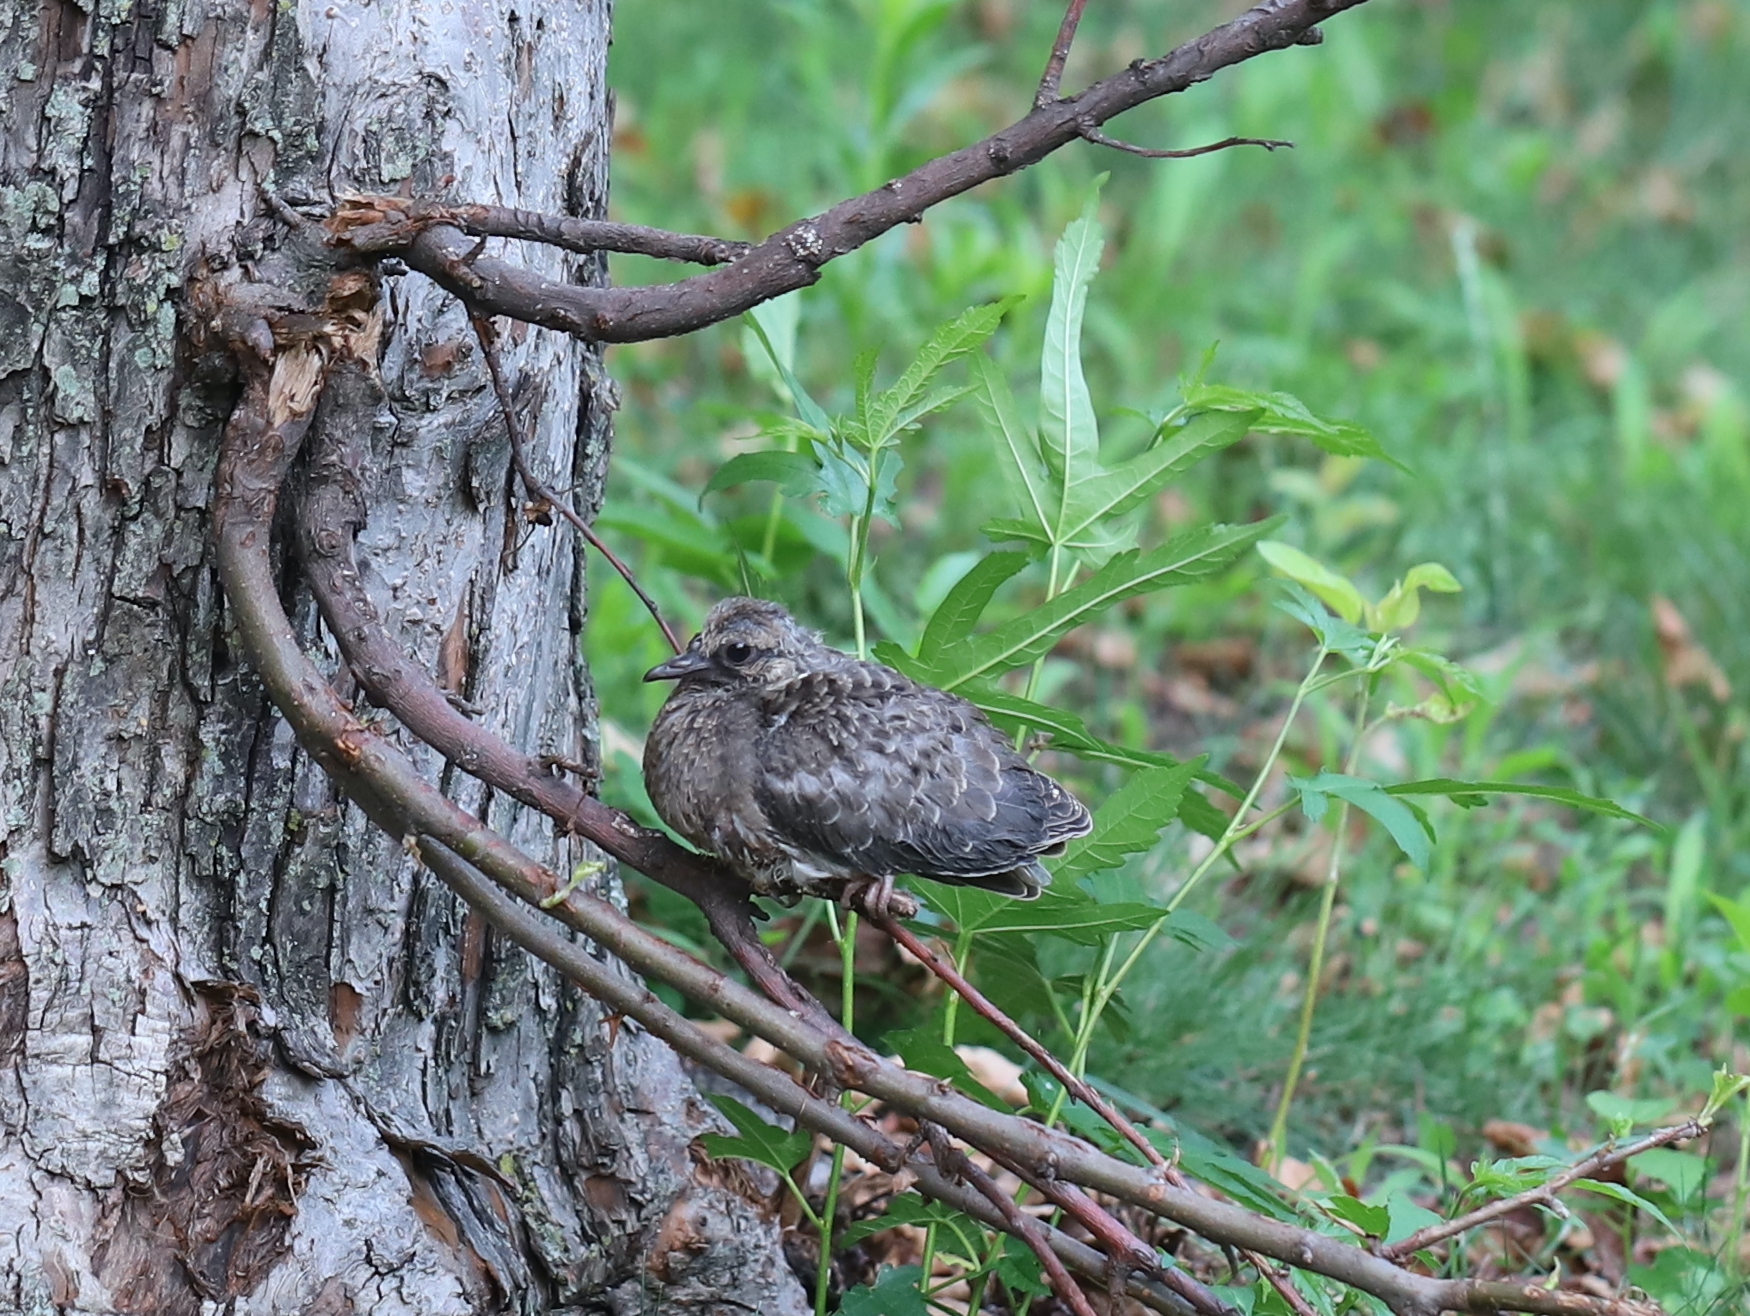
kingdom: Animalia
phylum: Chordata
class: Aves
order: Columbiformes
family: Columbidae
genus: Zenaida
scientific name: Zenaida macroura
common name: Mourning dove
